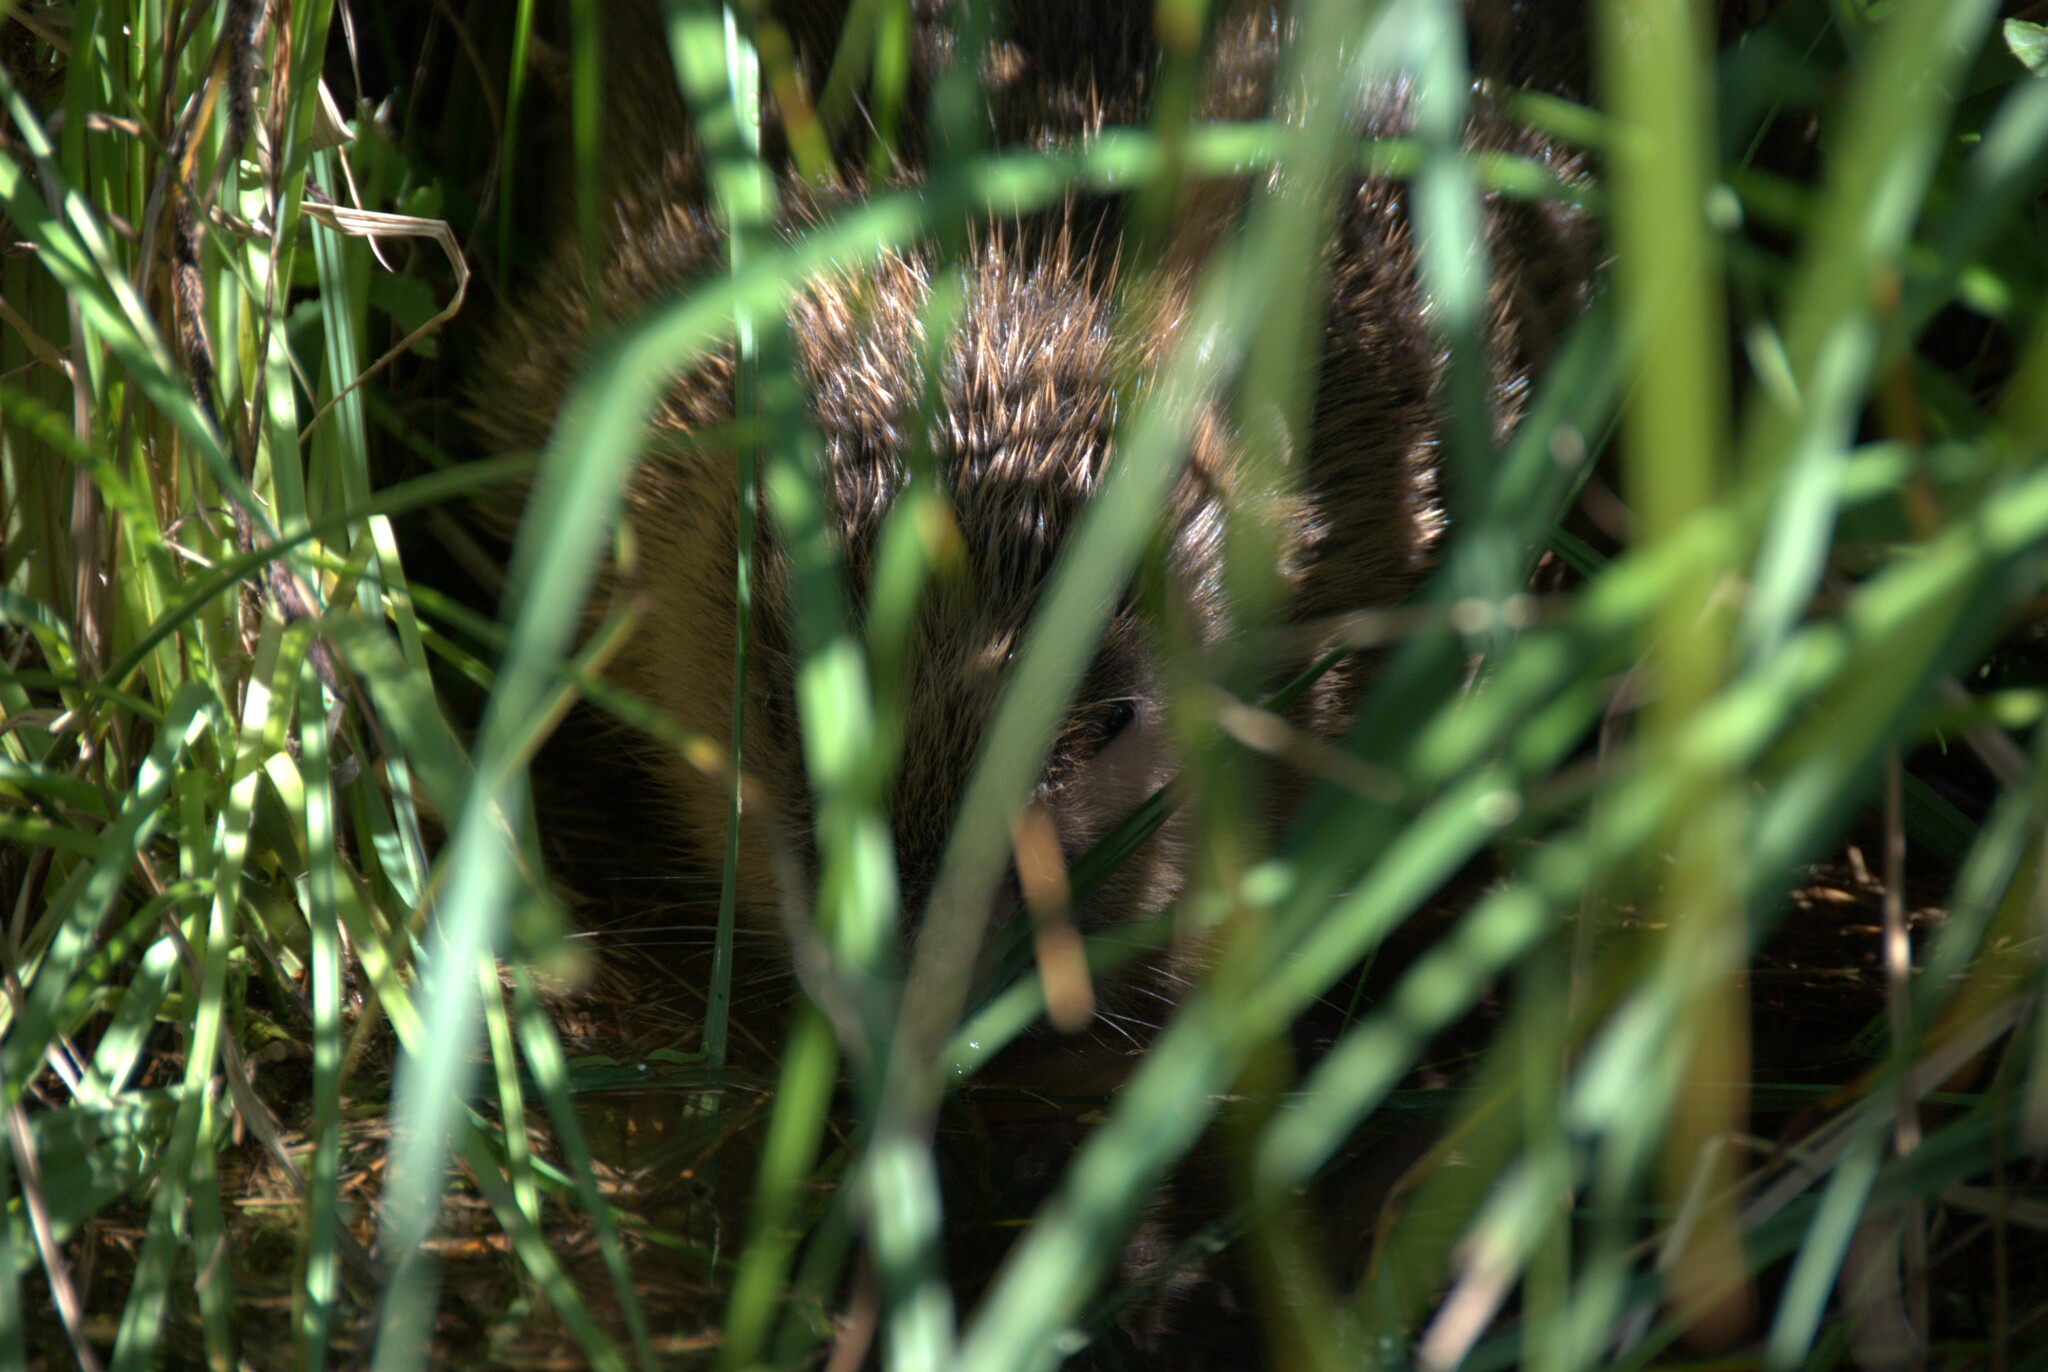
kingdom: Animalia
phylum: Chordata
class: Mammalia
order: Rodentia
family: Castoridae
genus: Castor
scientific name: Castor fiber
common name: Eurasian beaver
